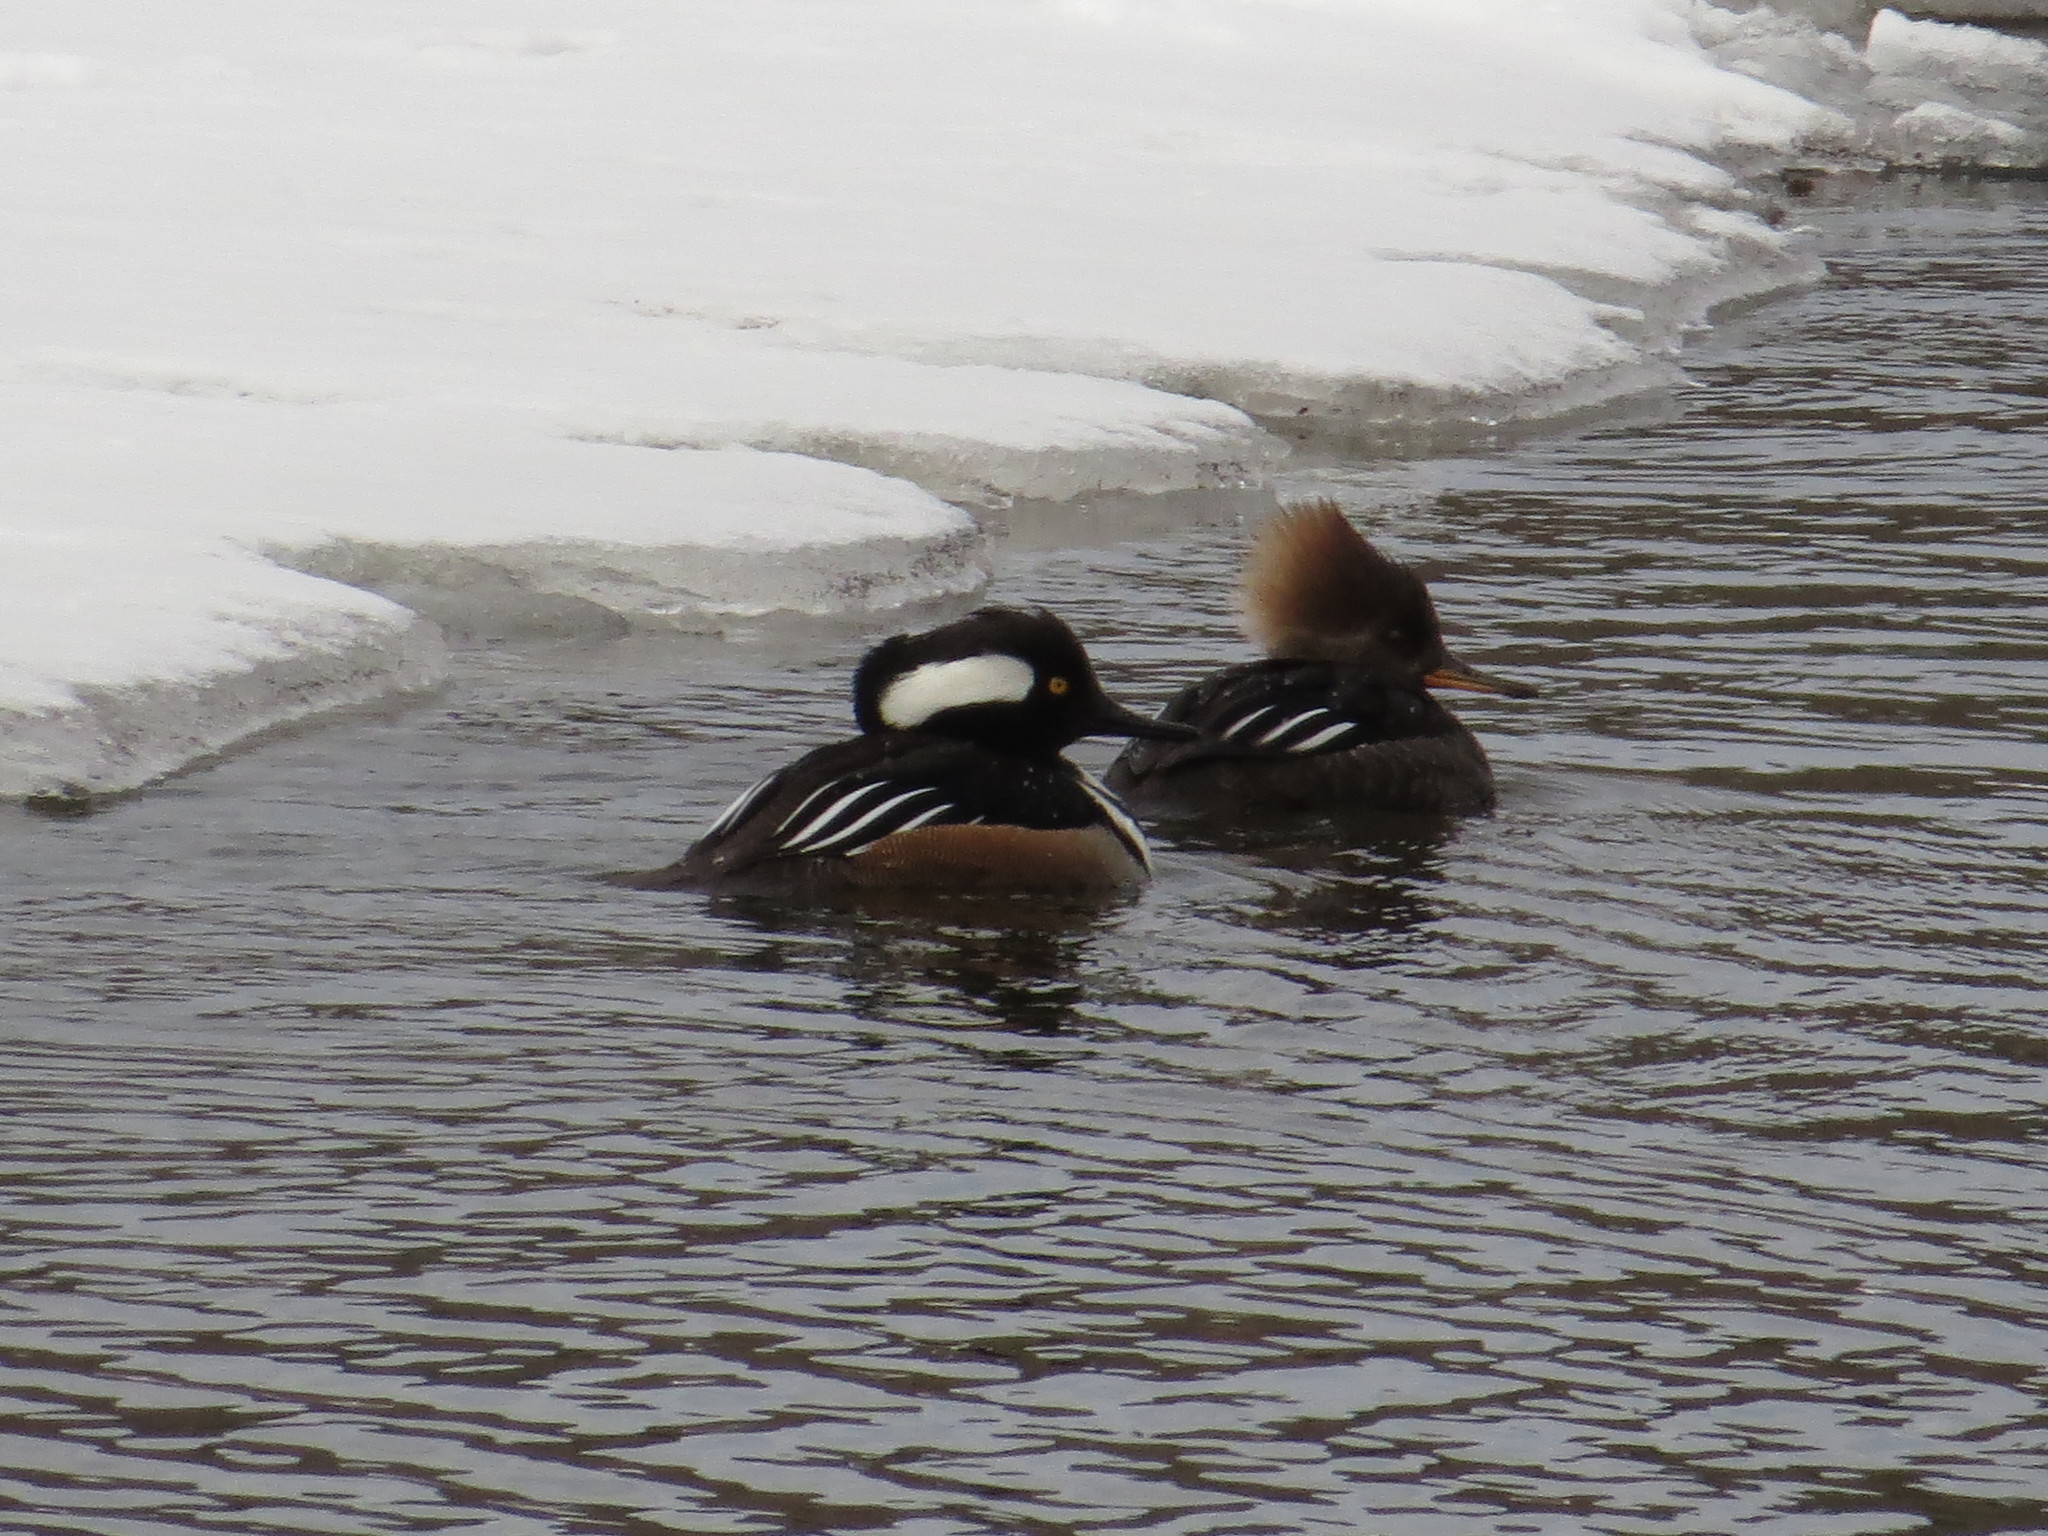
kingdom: Animalia
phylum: Chordata
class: Aves
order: Anseriformes
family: Anatidae
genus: Lophodytes
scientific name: Lophodytes cucullatus
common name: Hooded merganser
